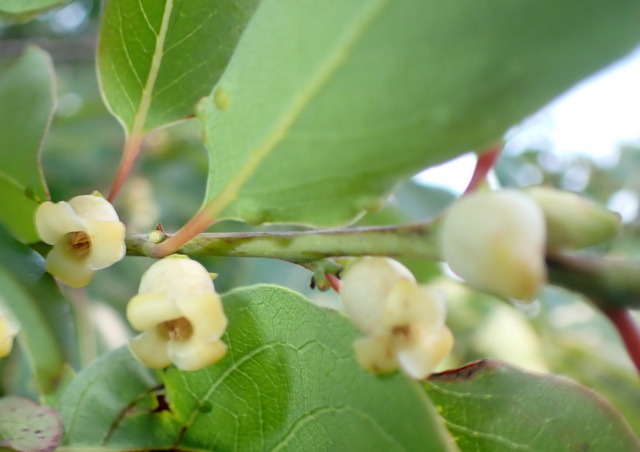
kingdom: Plantae
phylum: Tracheophyta
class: Magnoliopsida
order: Ericales
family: Ebenaceae
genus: Diospyros
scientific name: Diospyros virginiana
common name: Persimmon
